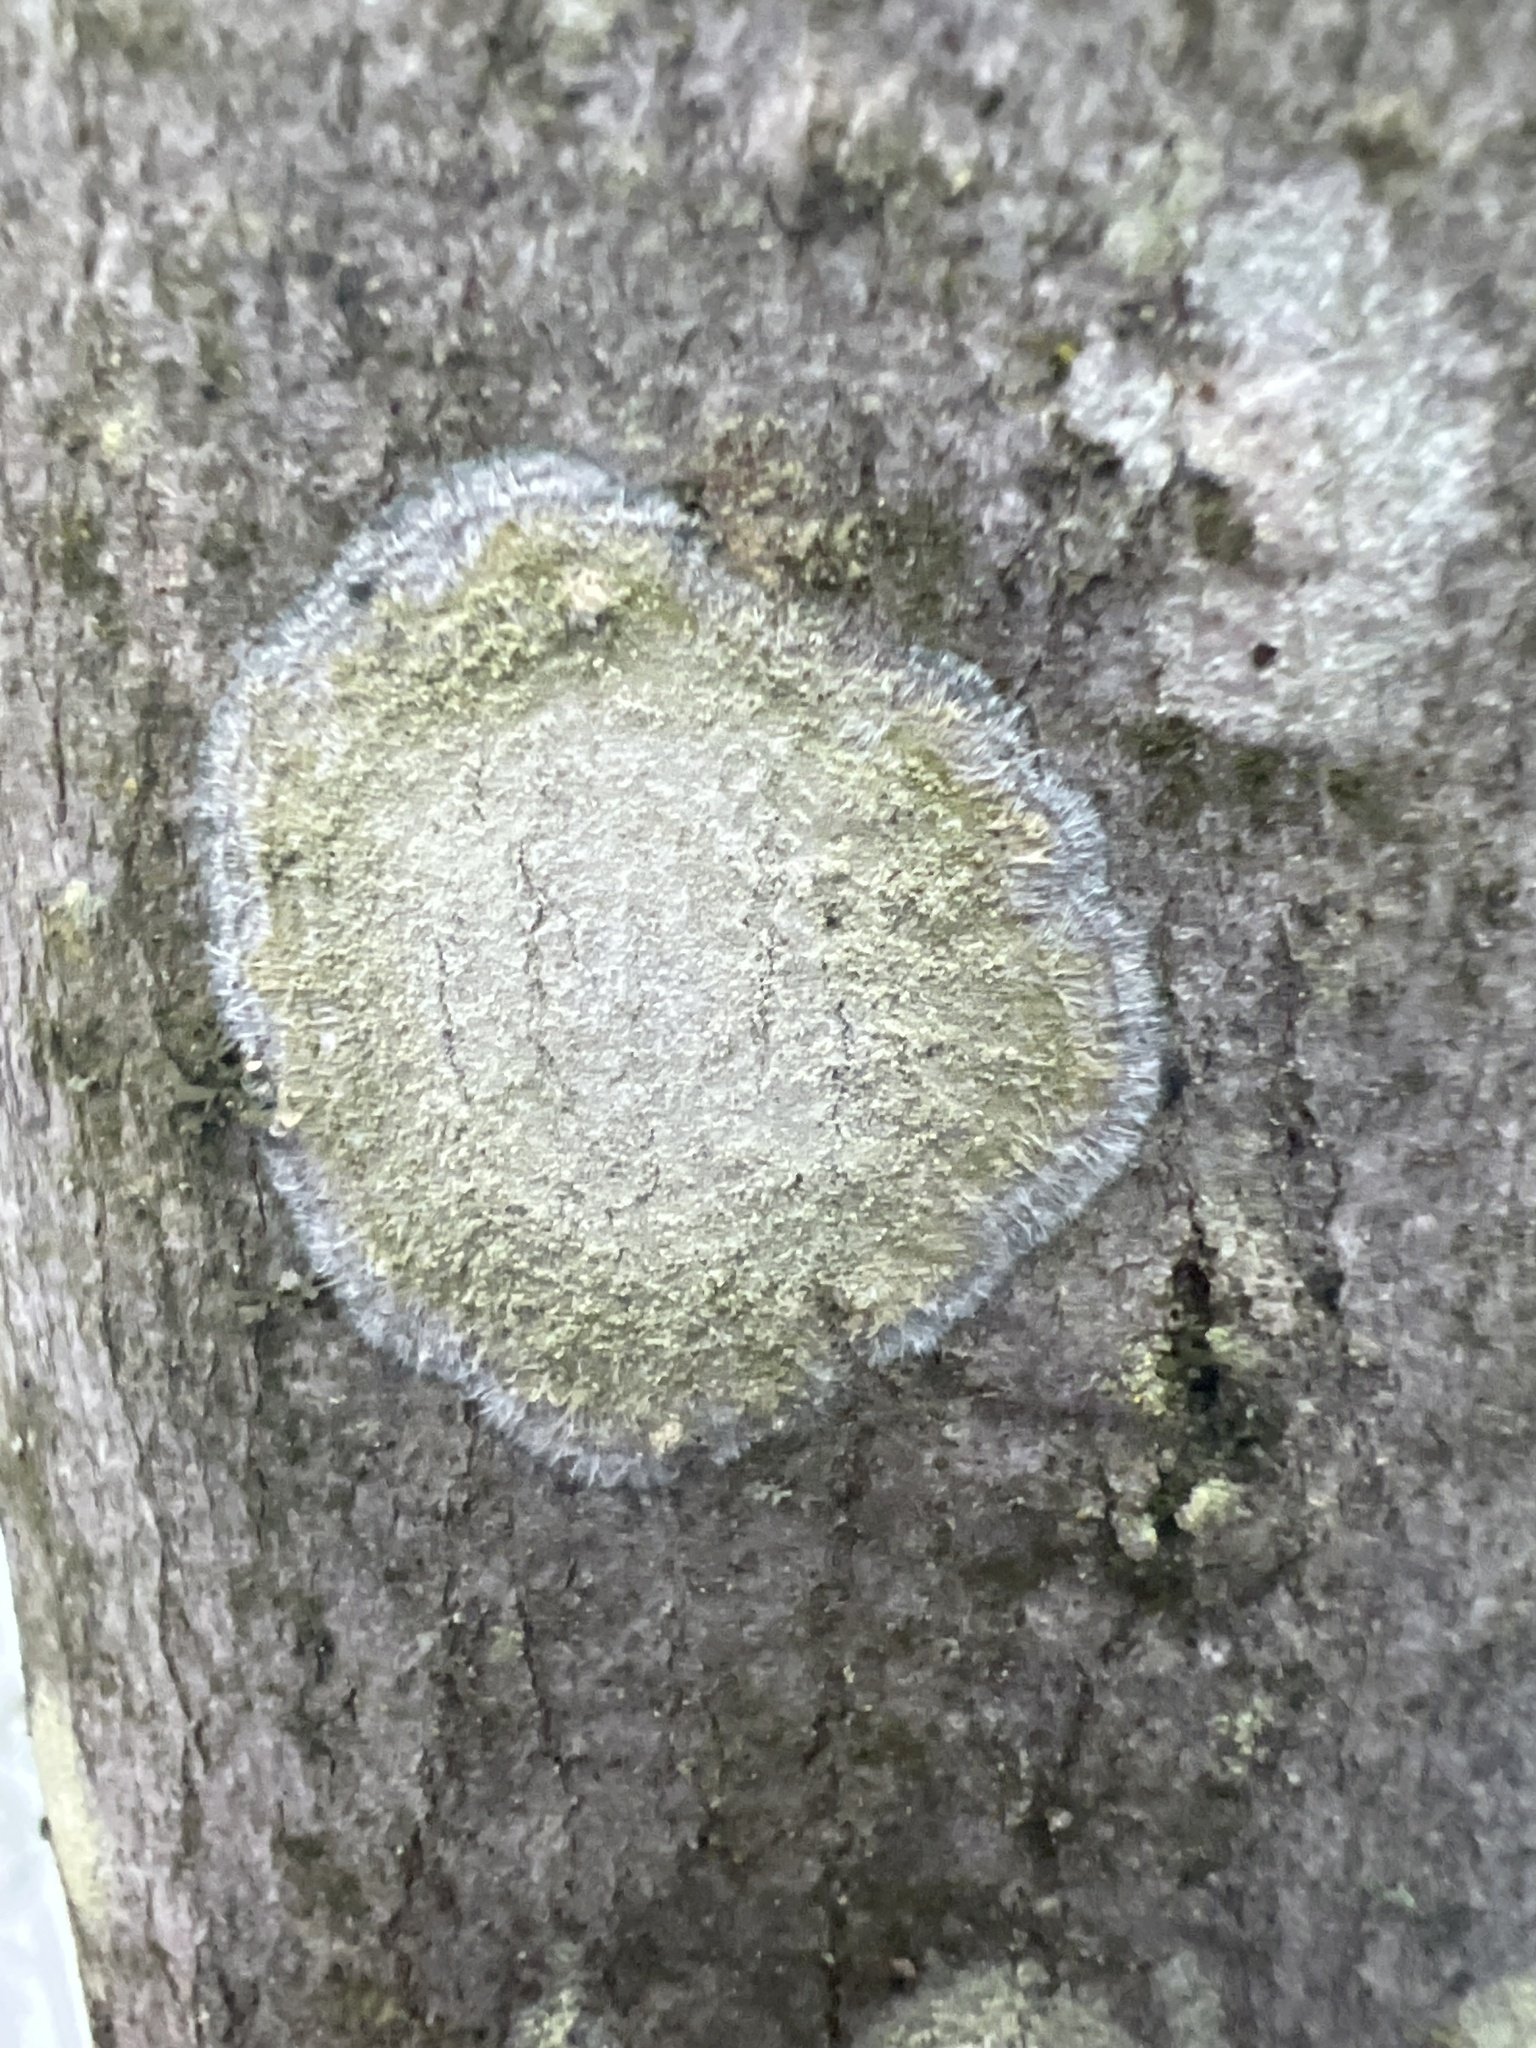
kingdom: Fungi
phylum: Ascomycota
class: Lecanoromycetes
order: Pertusariales
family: Pertusariaceae
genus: Verseghya
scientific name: Verseghya thysanophora
